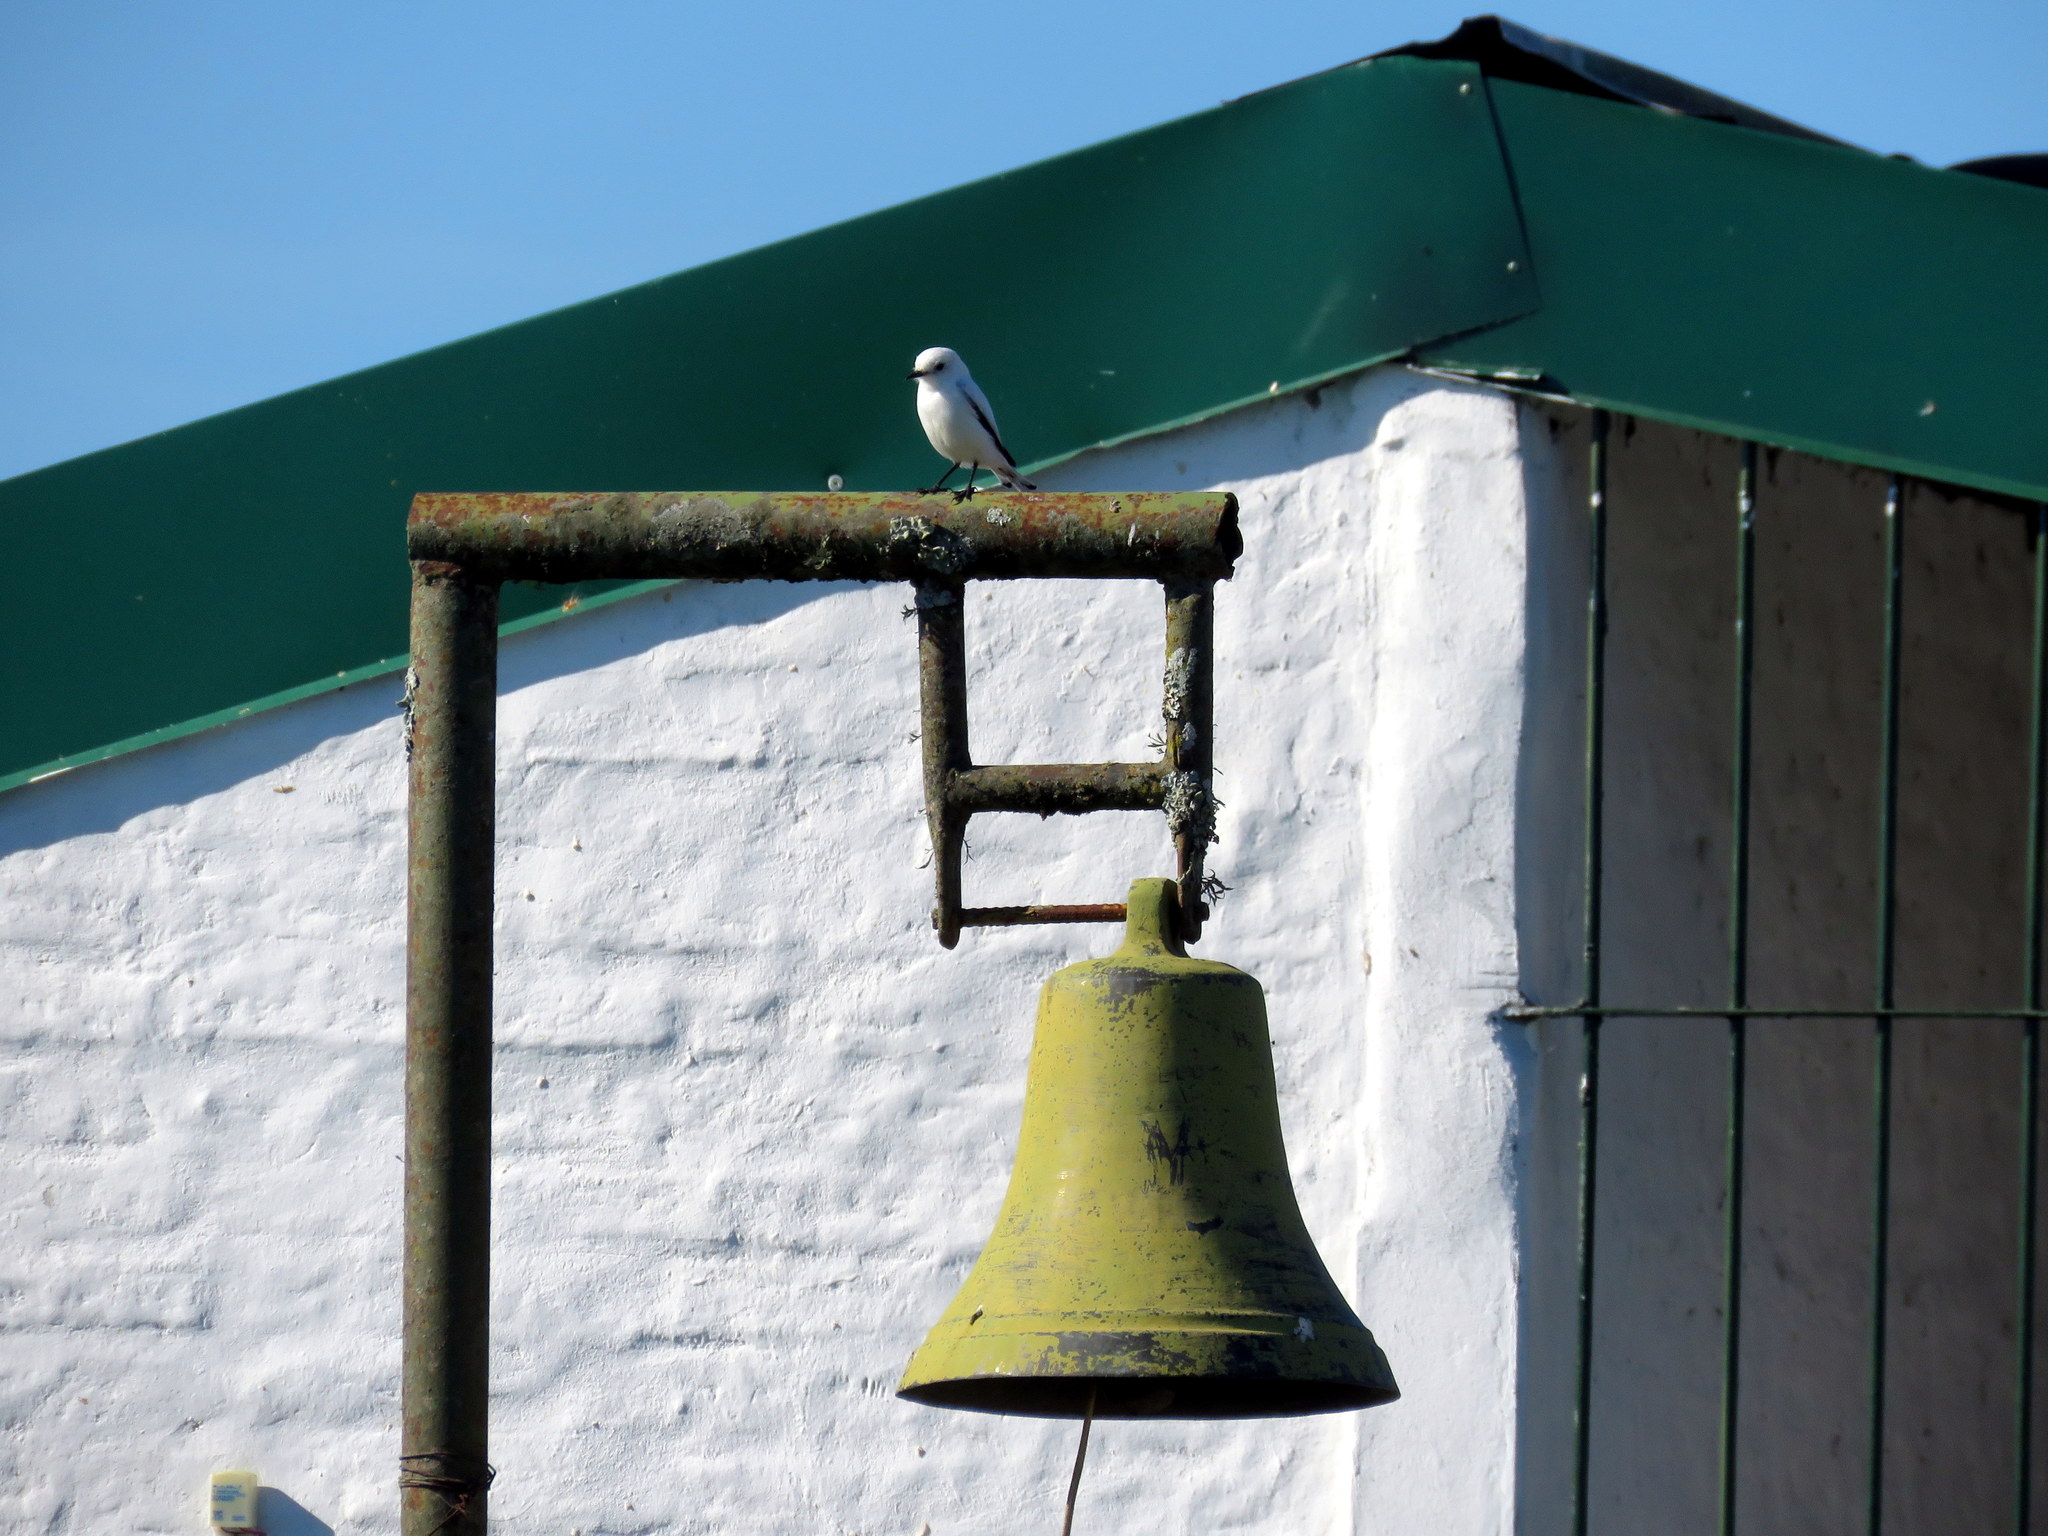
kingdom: Animalia
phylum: Chordata
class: Aves
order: Passeriformes
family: Tyrannidae
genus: Xolmis
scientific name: Xolmis irupero
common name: White monjita
